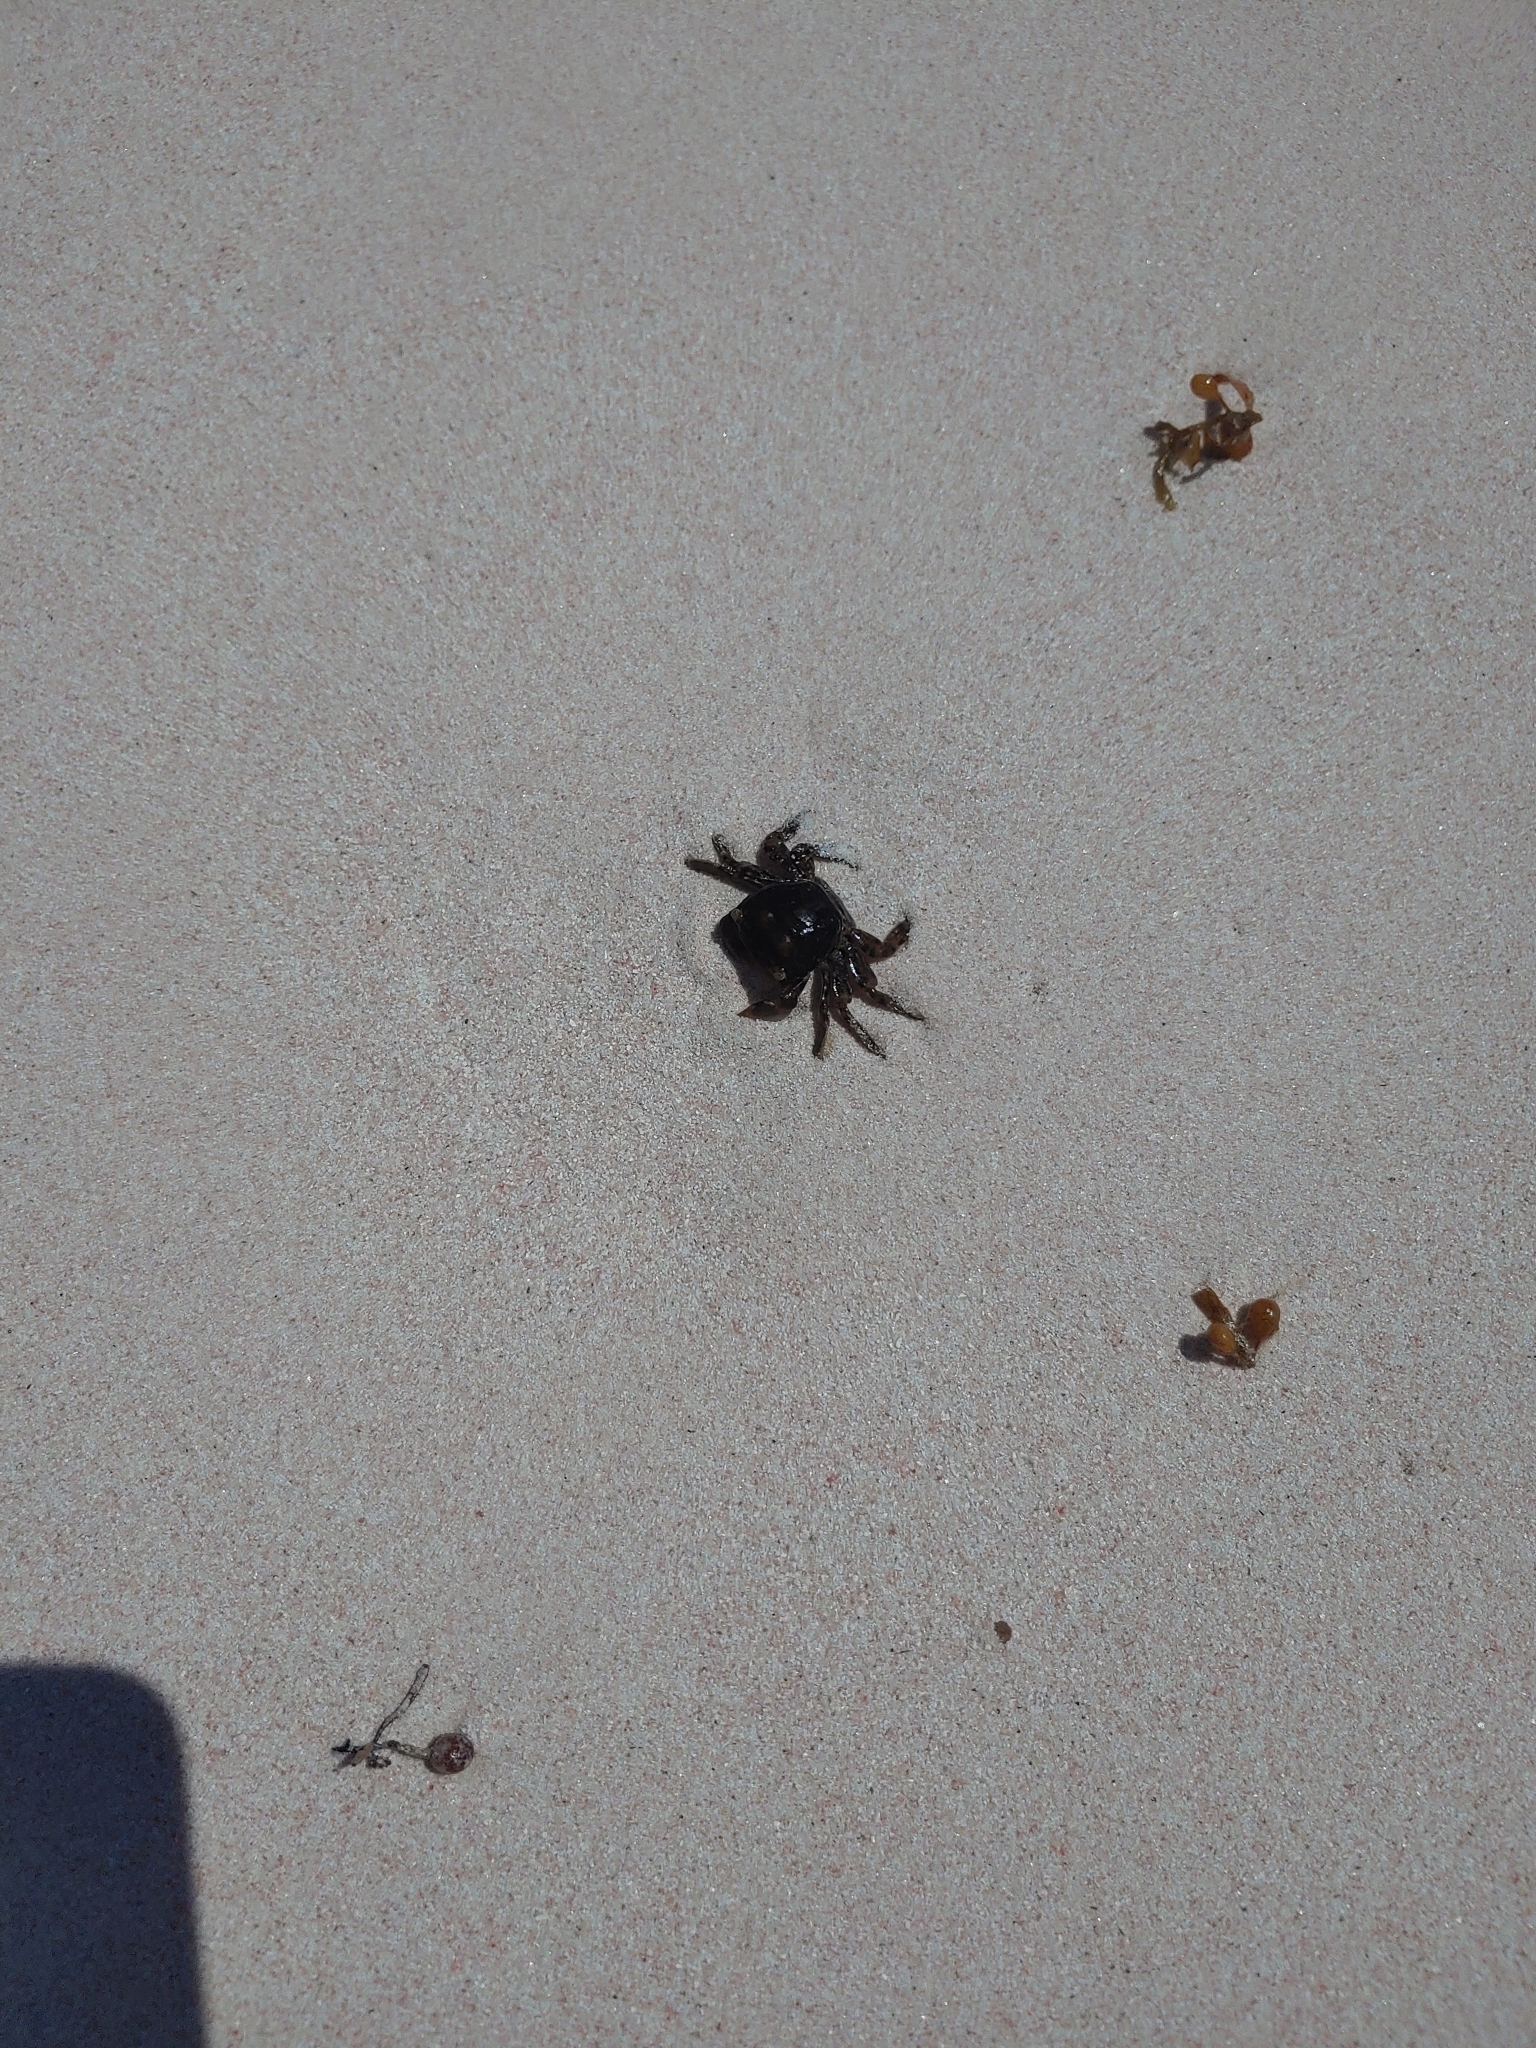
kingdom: Animalia
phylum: Arthropoda
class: Malacostraca
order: Decapoda
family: Grapsidae
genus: Planes
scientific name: Planes minutus
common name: Gulf weed crab
